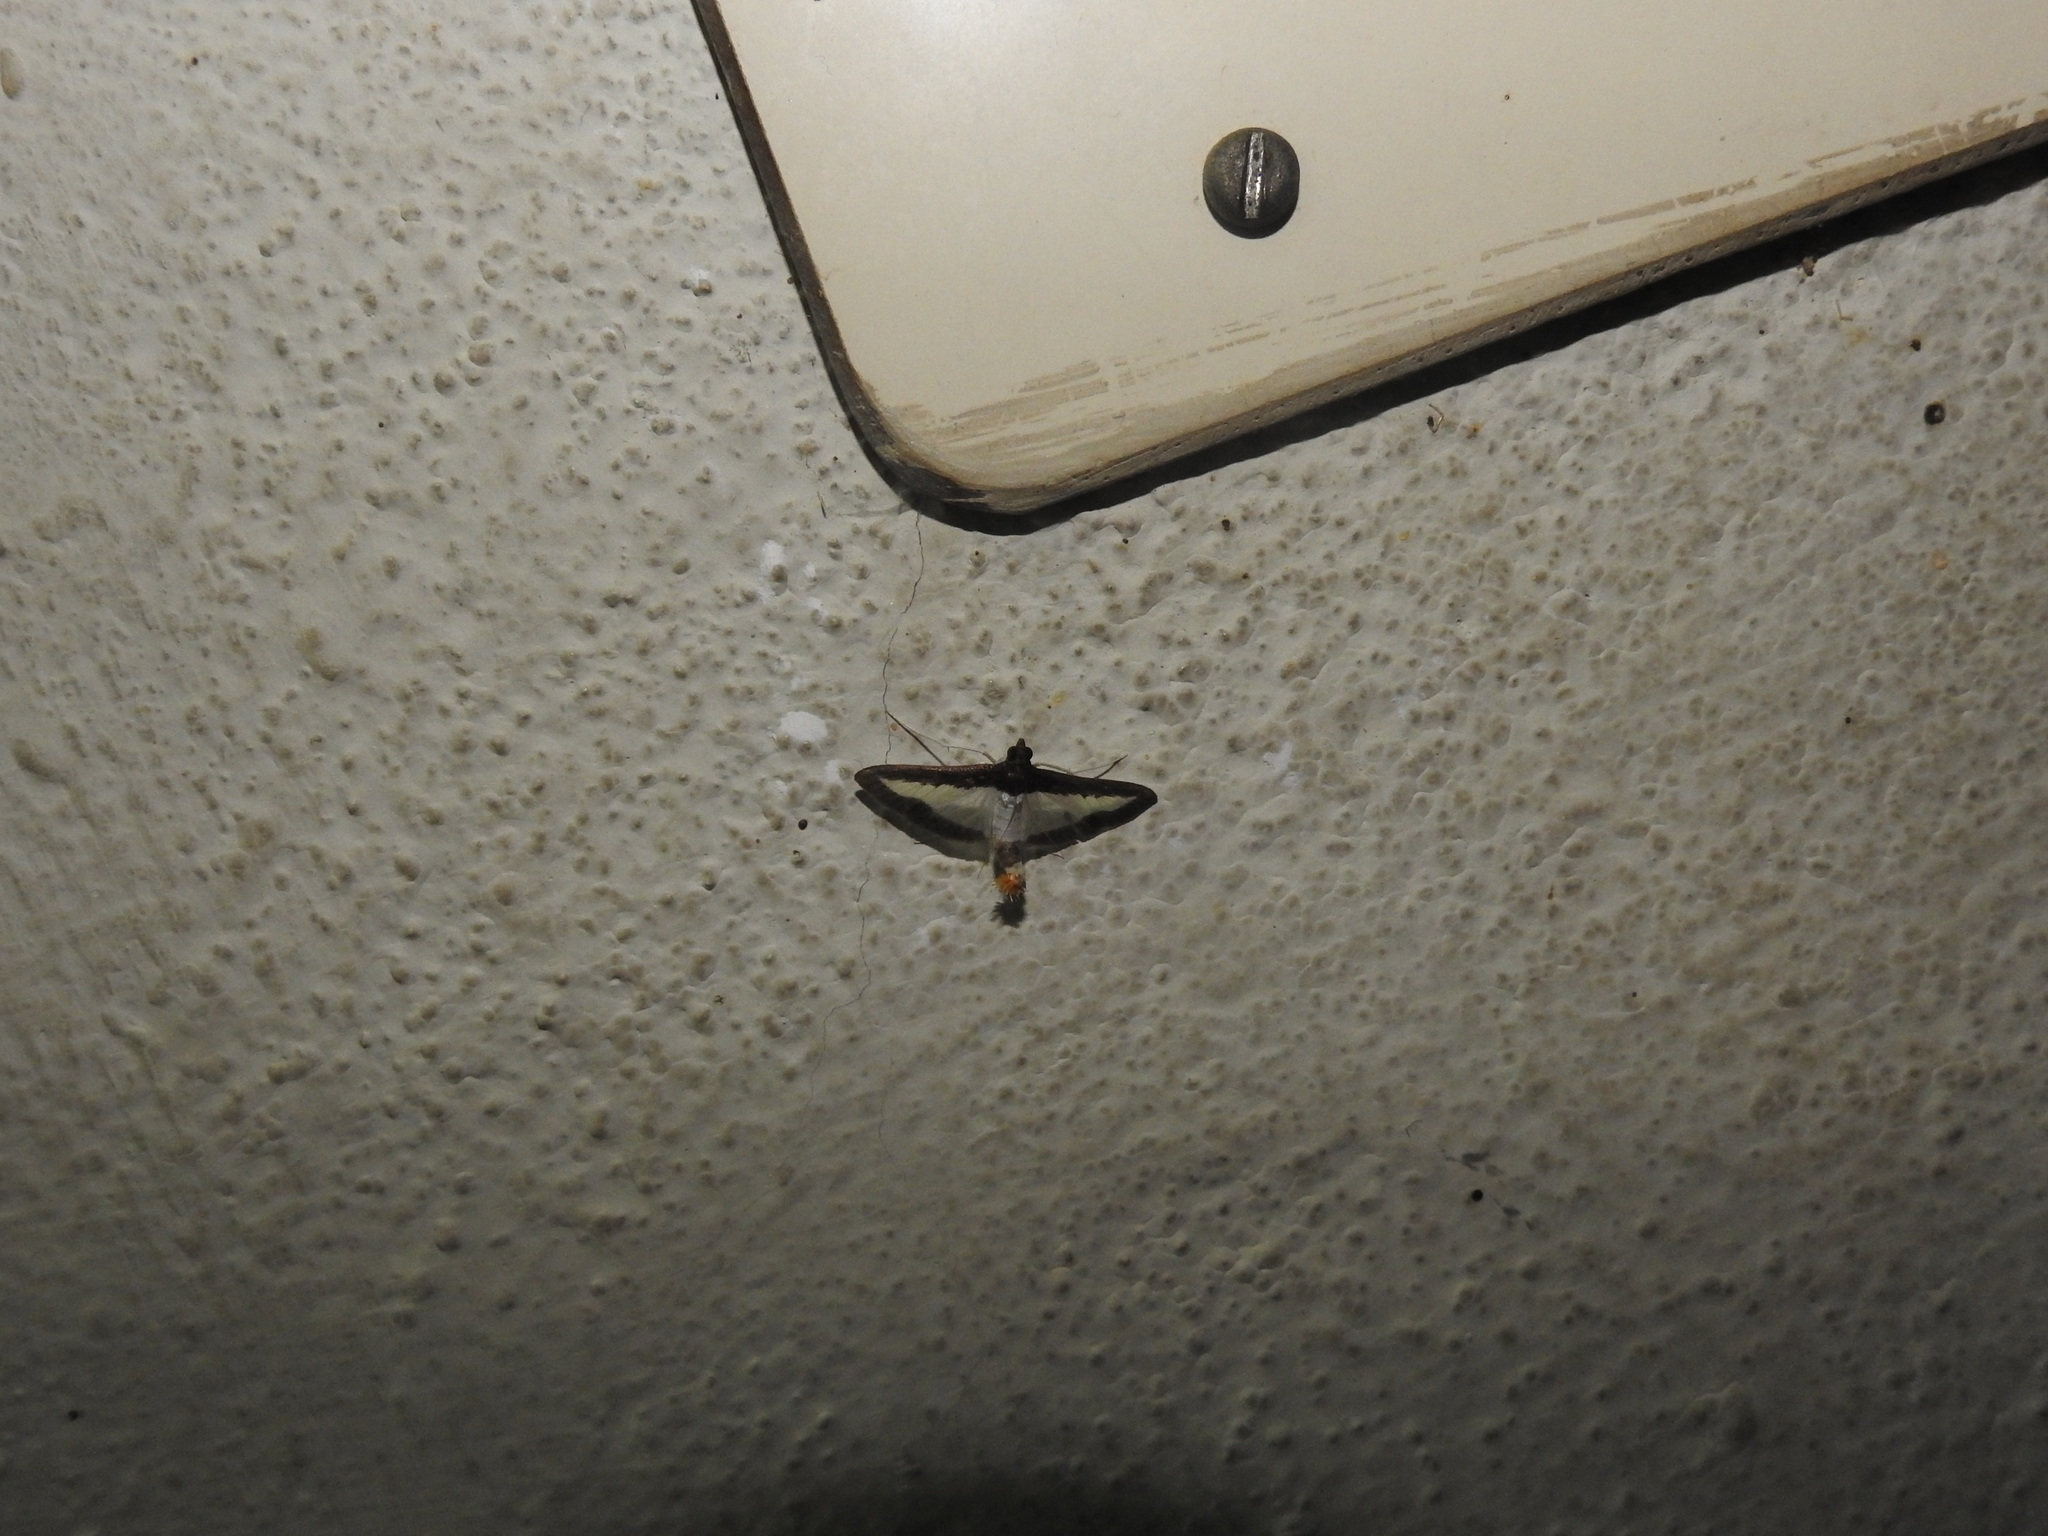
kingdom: Animalia
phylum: Arthropoda
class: Insecta
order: Lepidoptera
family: Crambidae
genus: Diaphania
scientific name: Diaphania indica
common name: Cucumber moth
